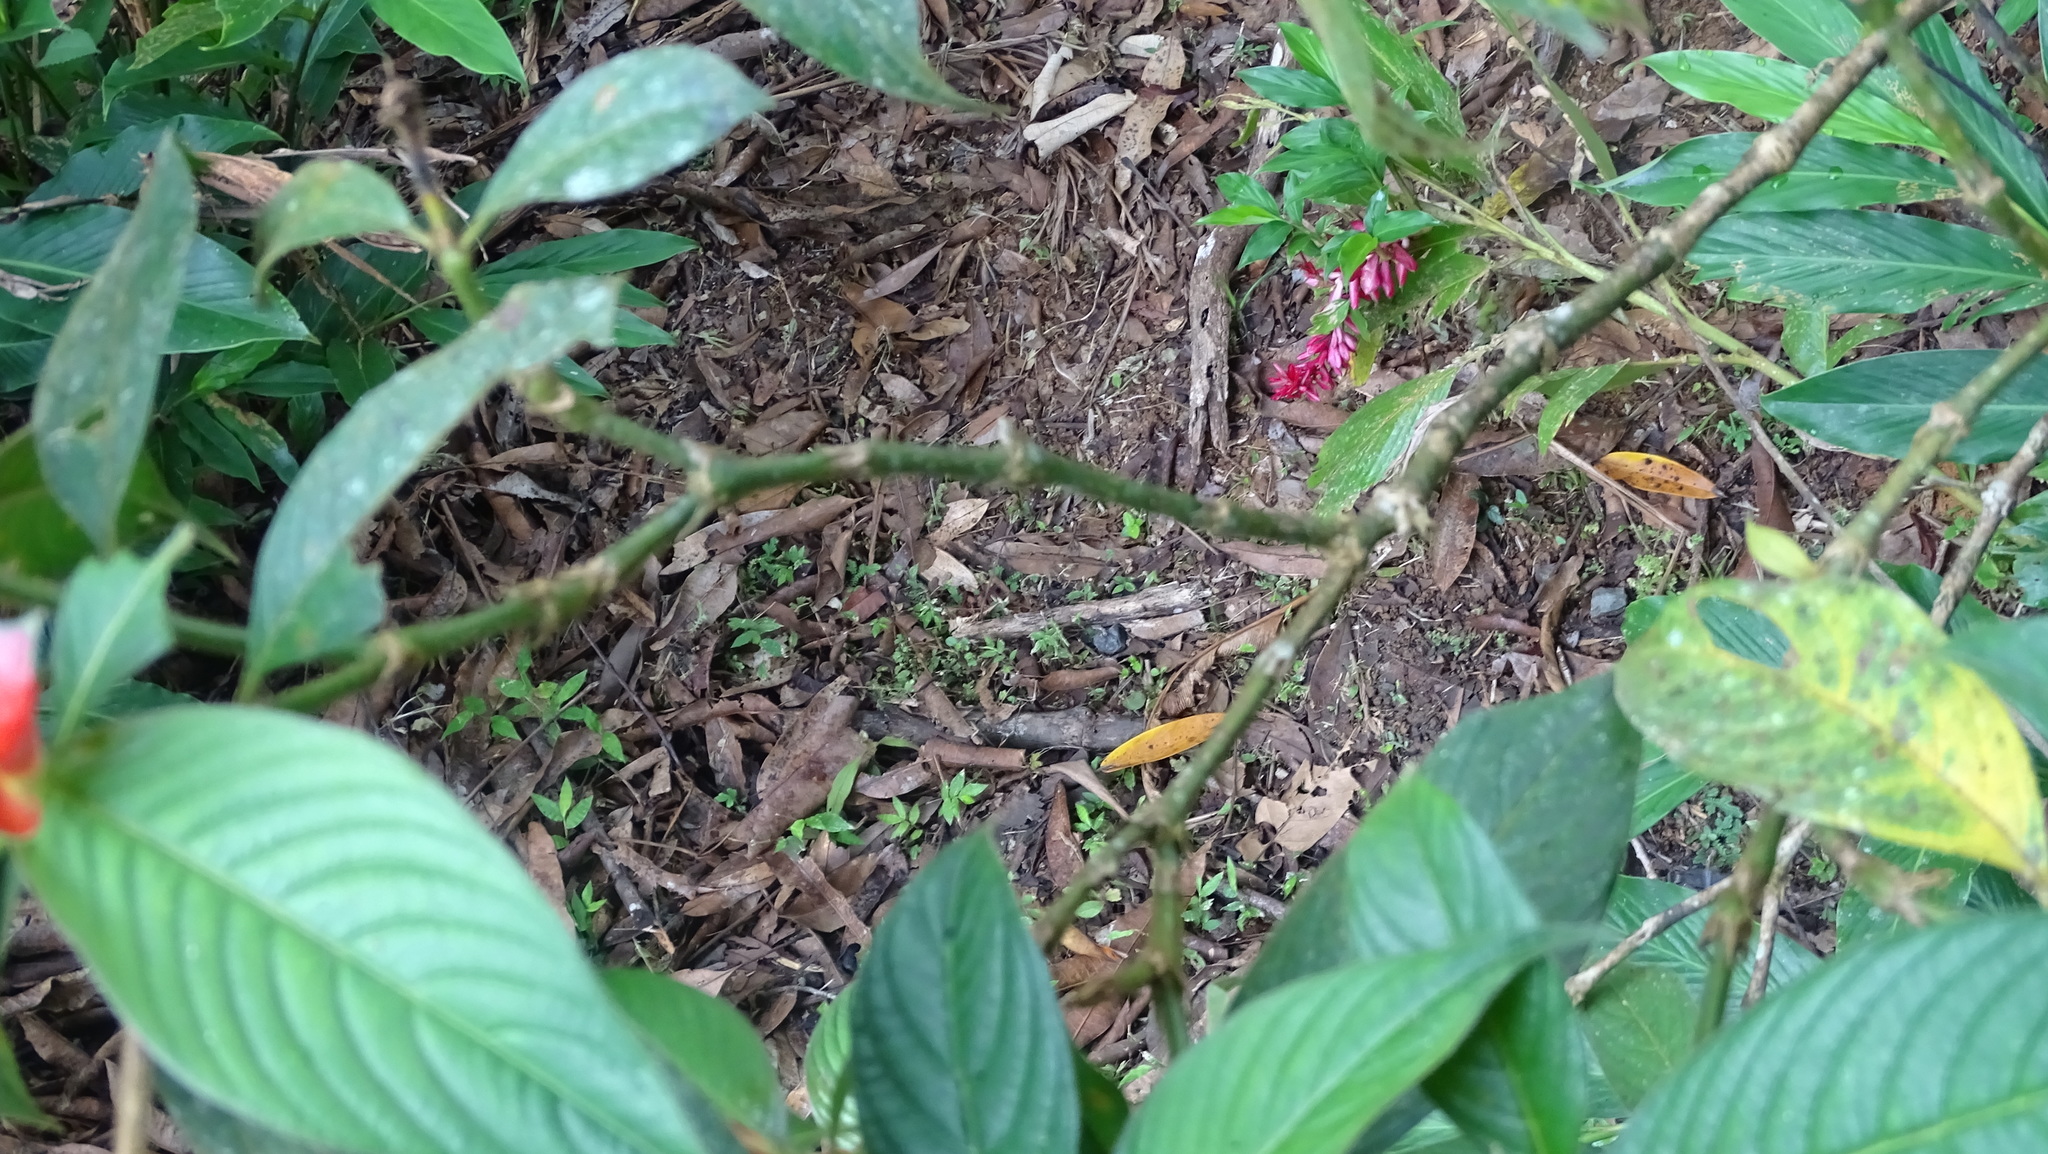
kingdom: Plantae
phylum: Tracheophyta
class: Magnoliopsida
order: Gentianales
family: Rubiaceae
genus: Palicourea
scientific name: Palicourea tomentosa
